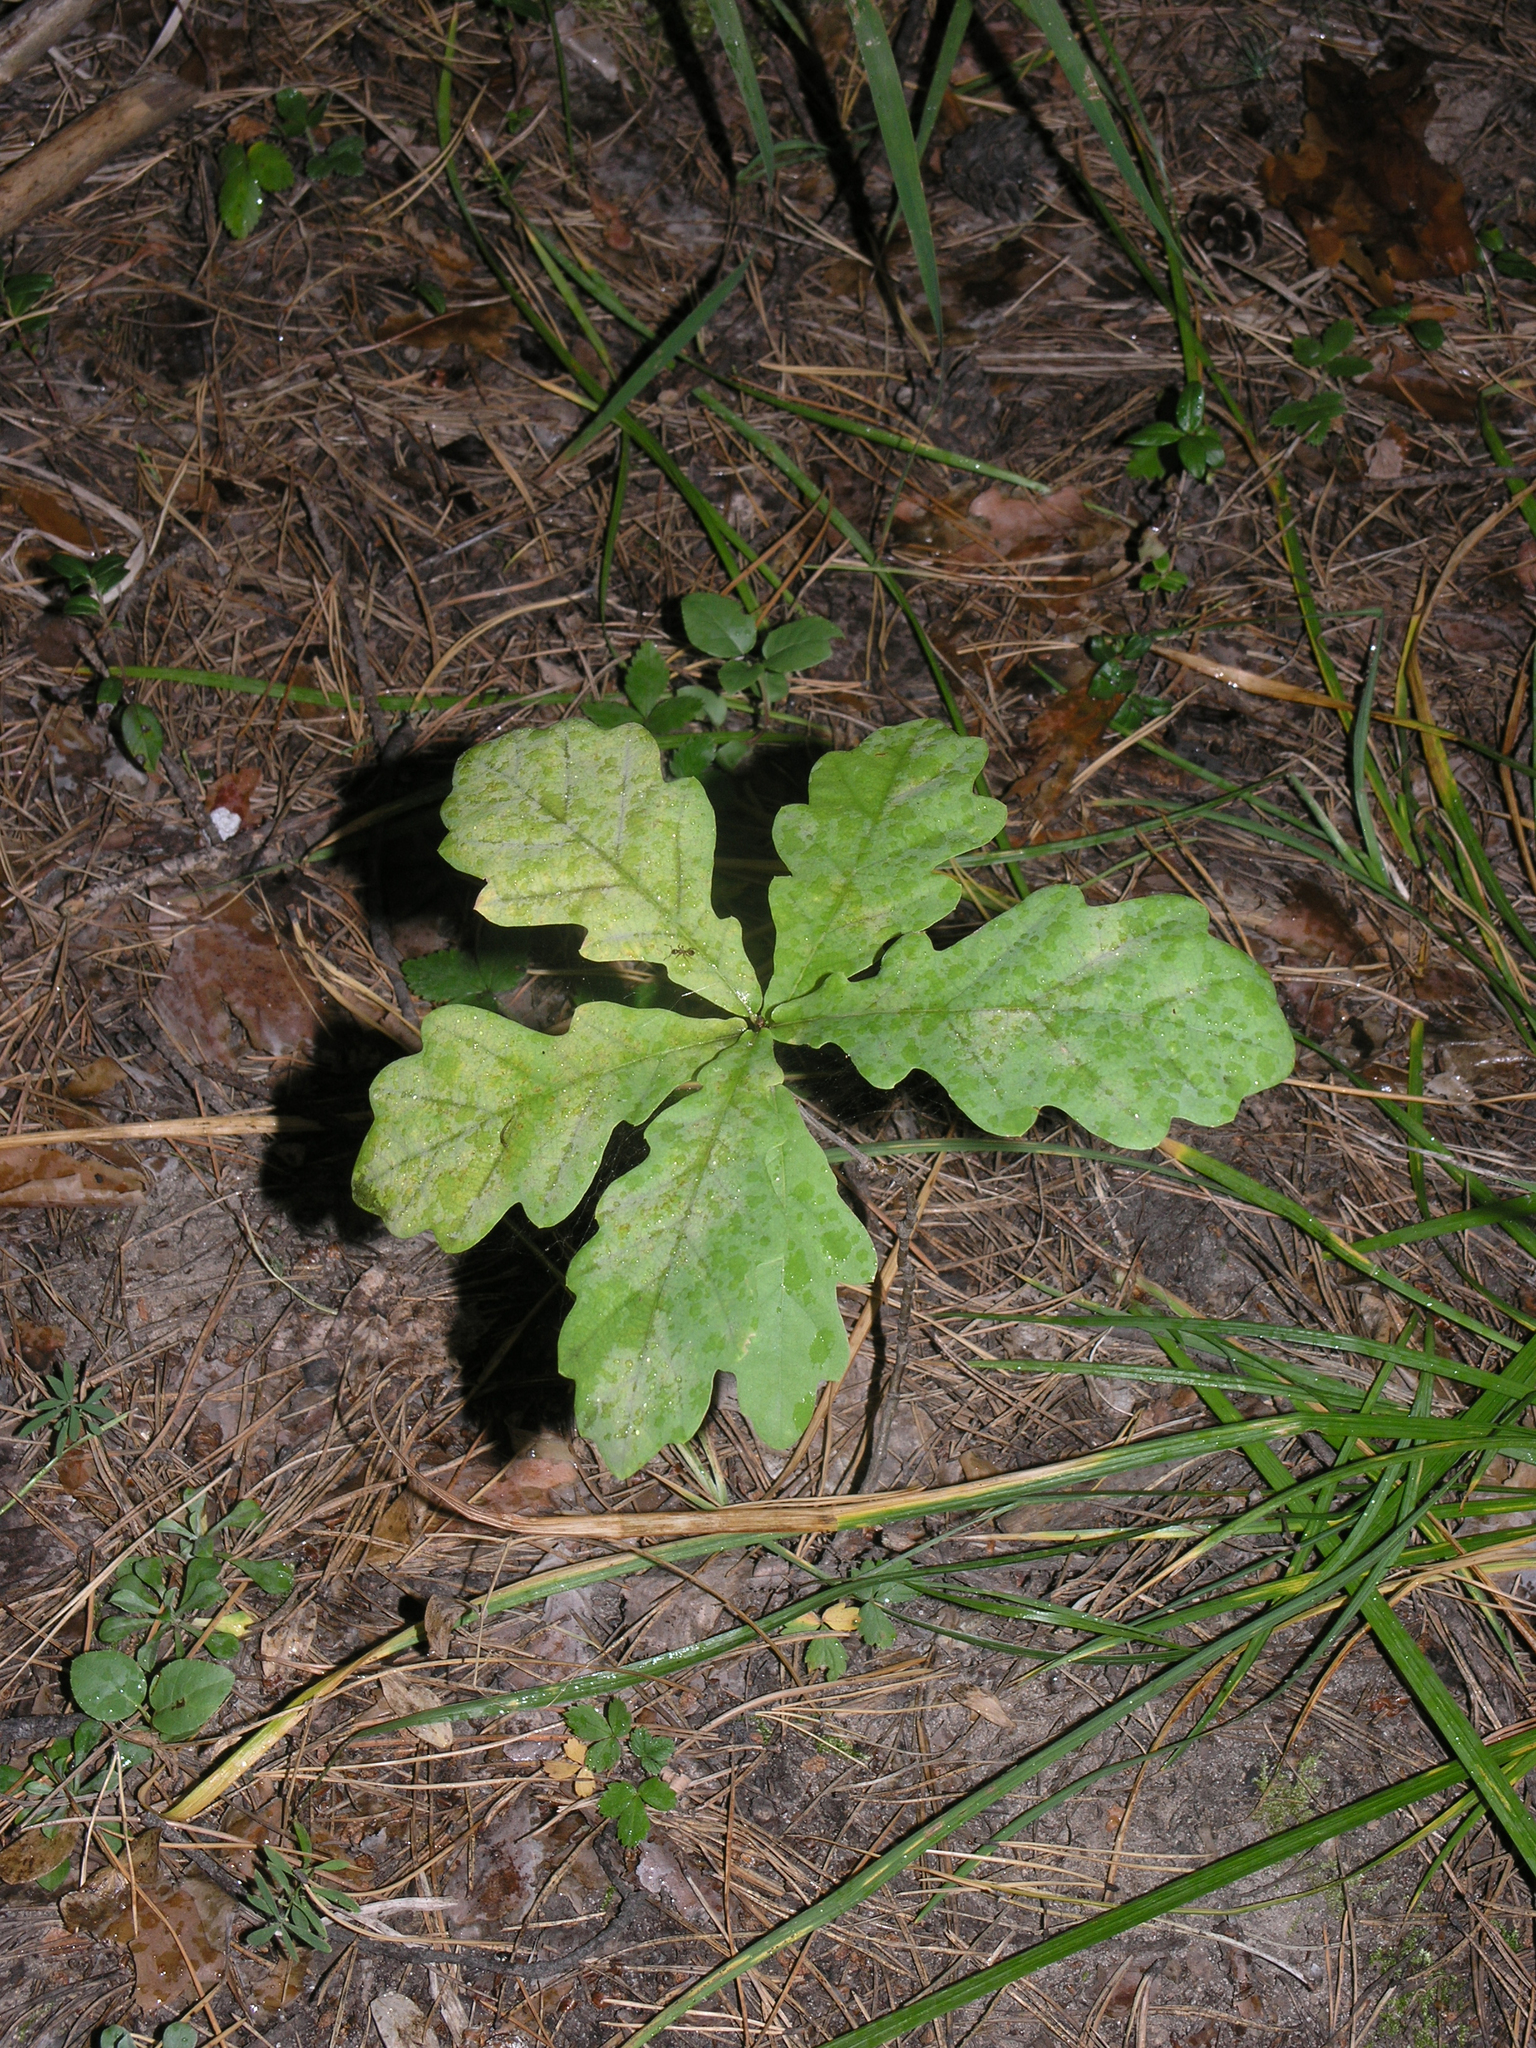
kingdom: Plantae
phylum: Tracheophyta
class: Magnoliopsida
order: Fagales
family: Fagaceae
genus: Quercus
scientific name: Quercus robur
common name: Pedunculate oak
